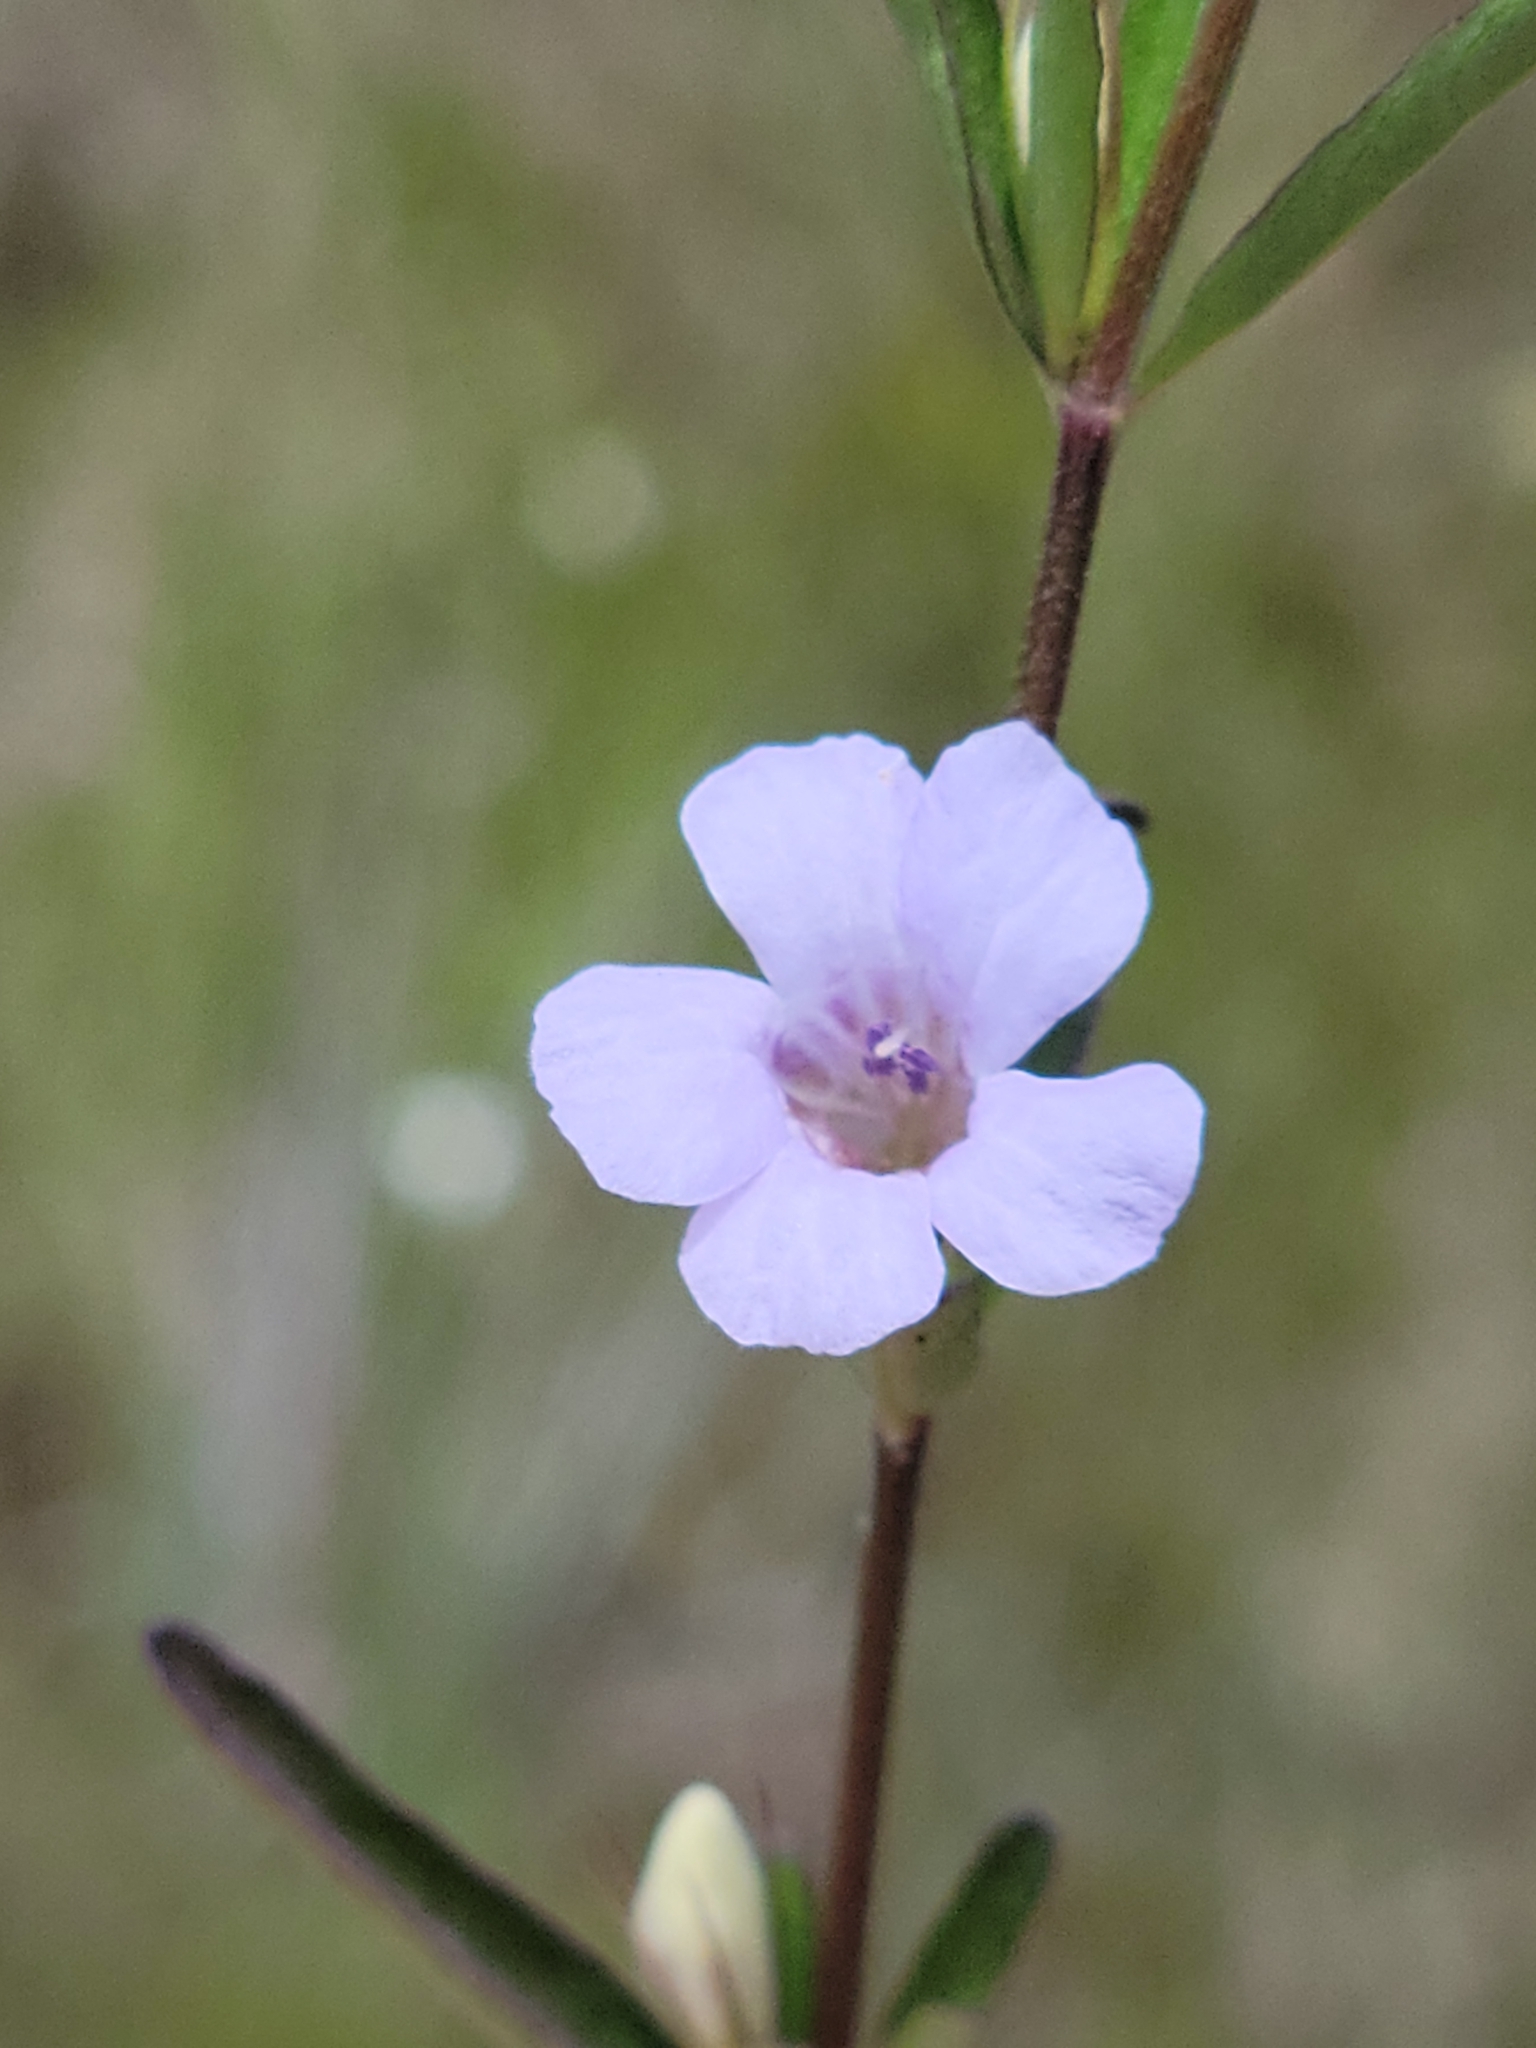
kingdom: Plantae
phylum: Tracheophyta
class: Magnoliopsida
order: Lamiales
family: Acanthaceae
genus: Dyschoriste
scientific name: Dyschoriste angusta
